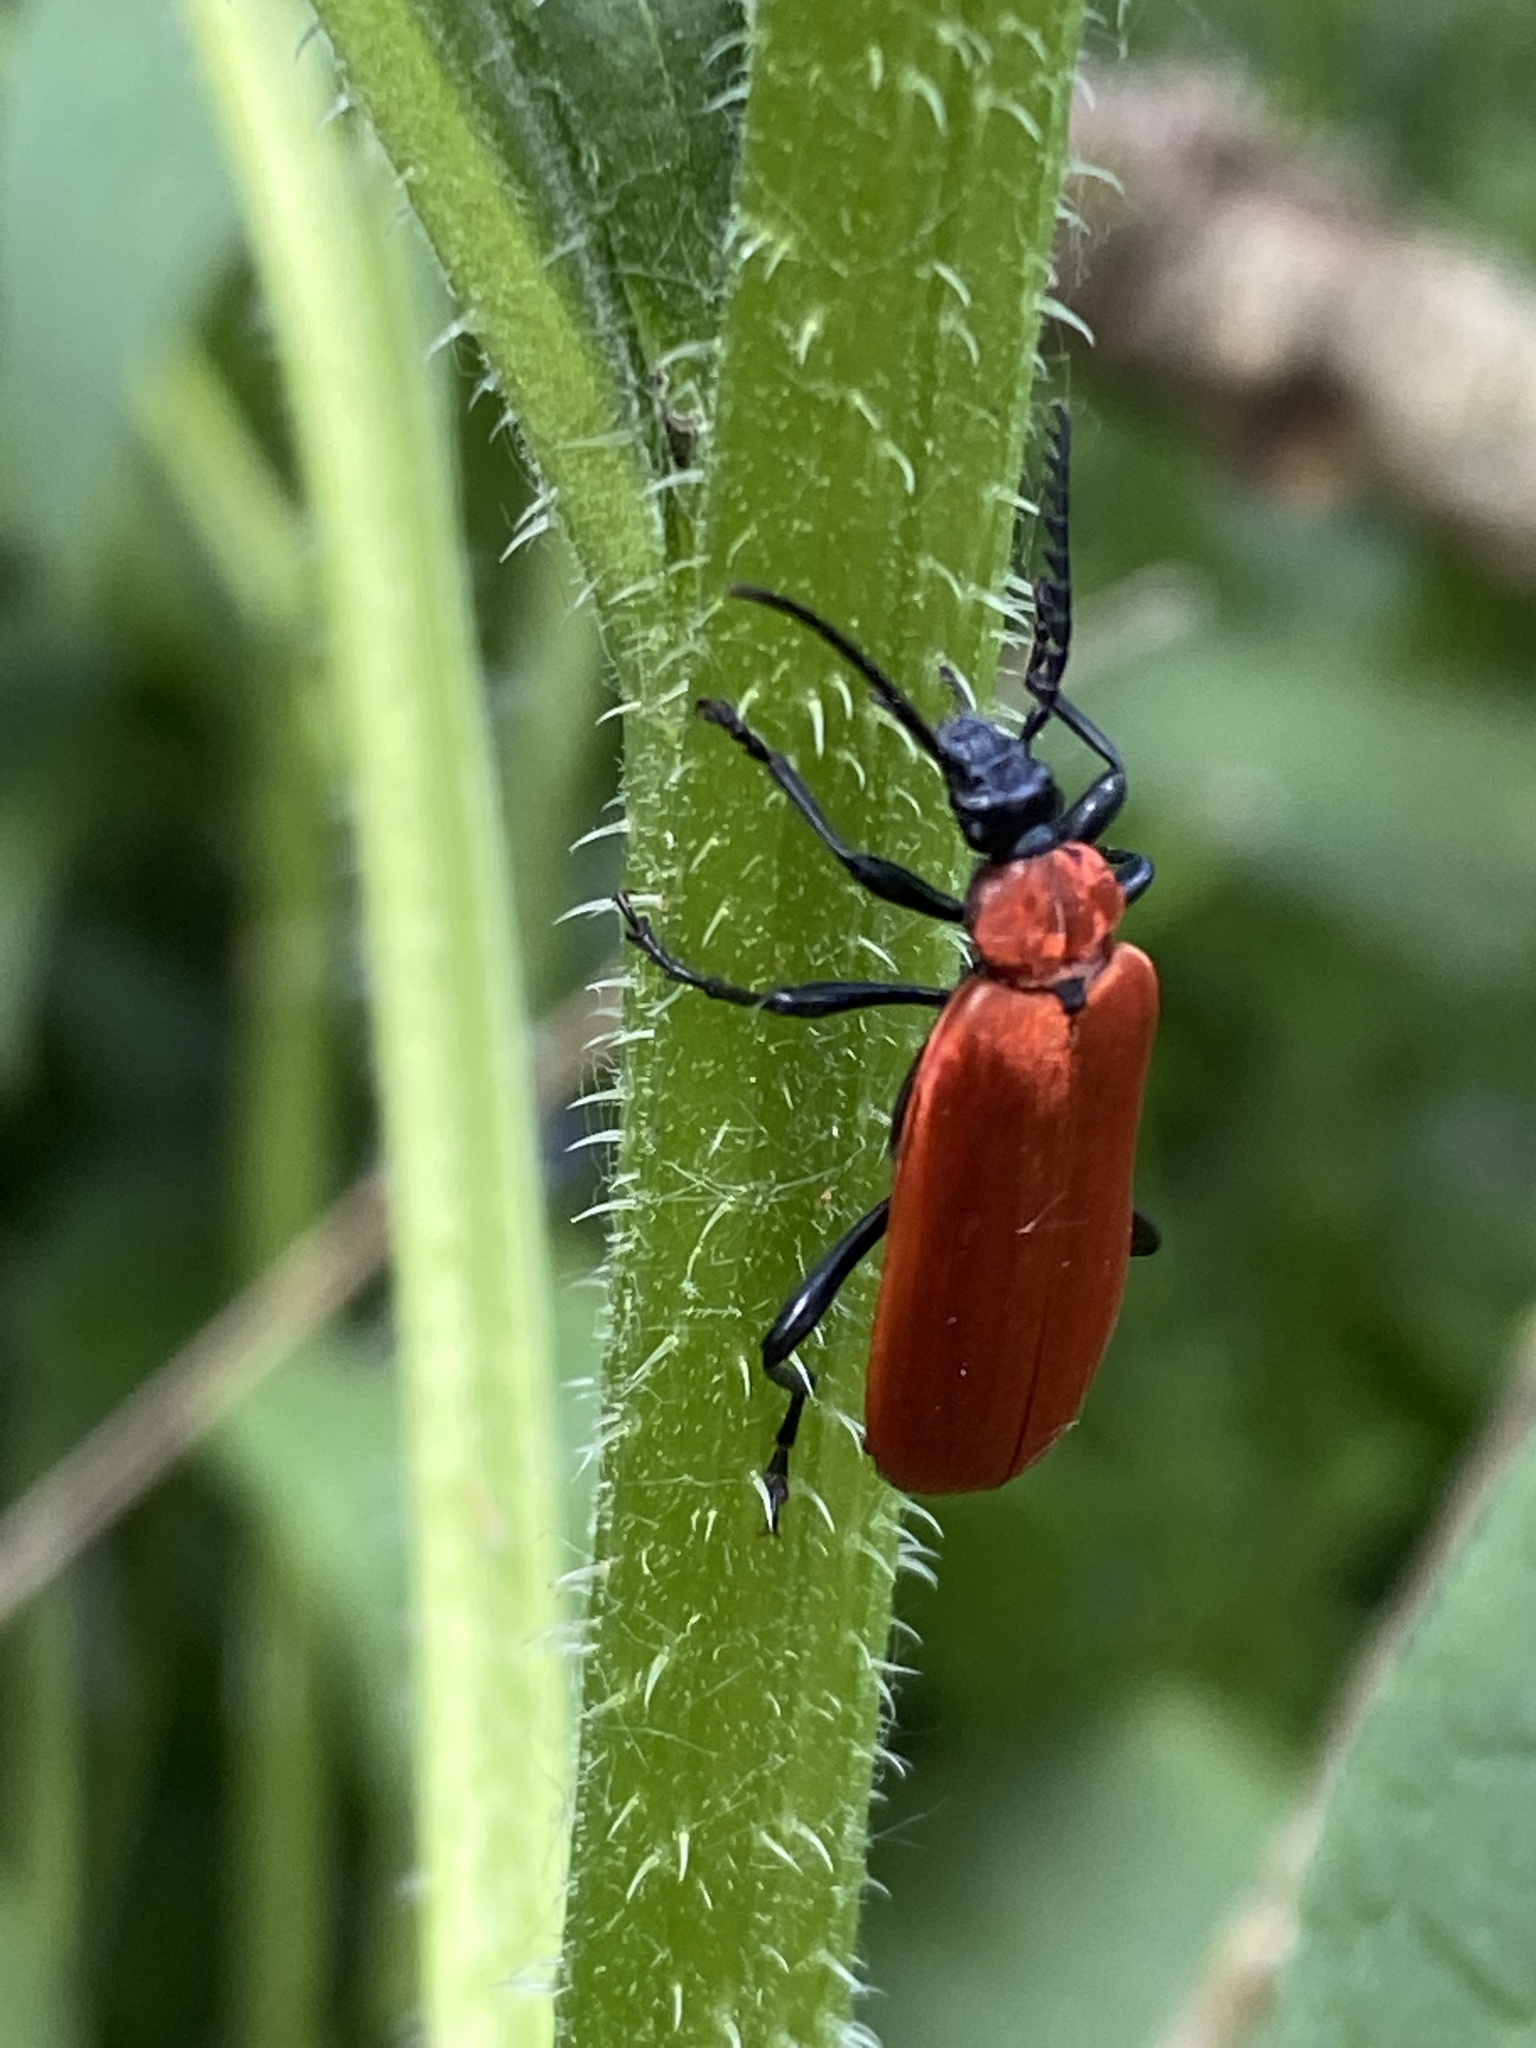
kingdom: Animalia
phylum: Arthropoda
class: Insecta
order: Coleoptera
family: Pyrochroidae
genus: Pyrochroa
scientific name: Pyrochroa coccinea
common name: Black-headed cardinal beetle
